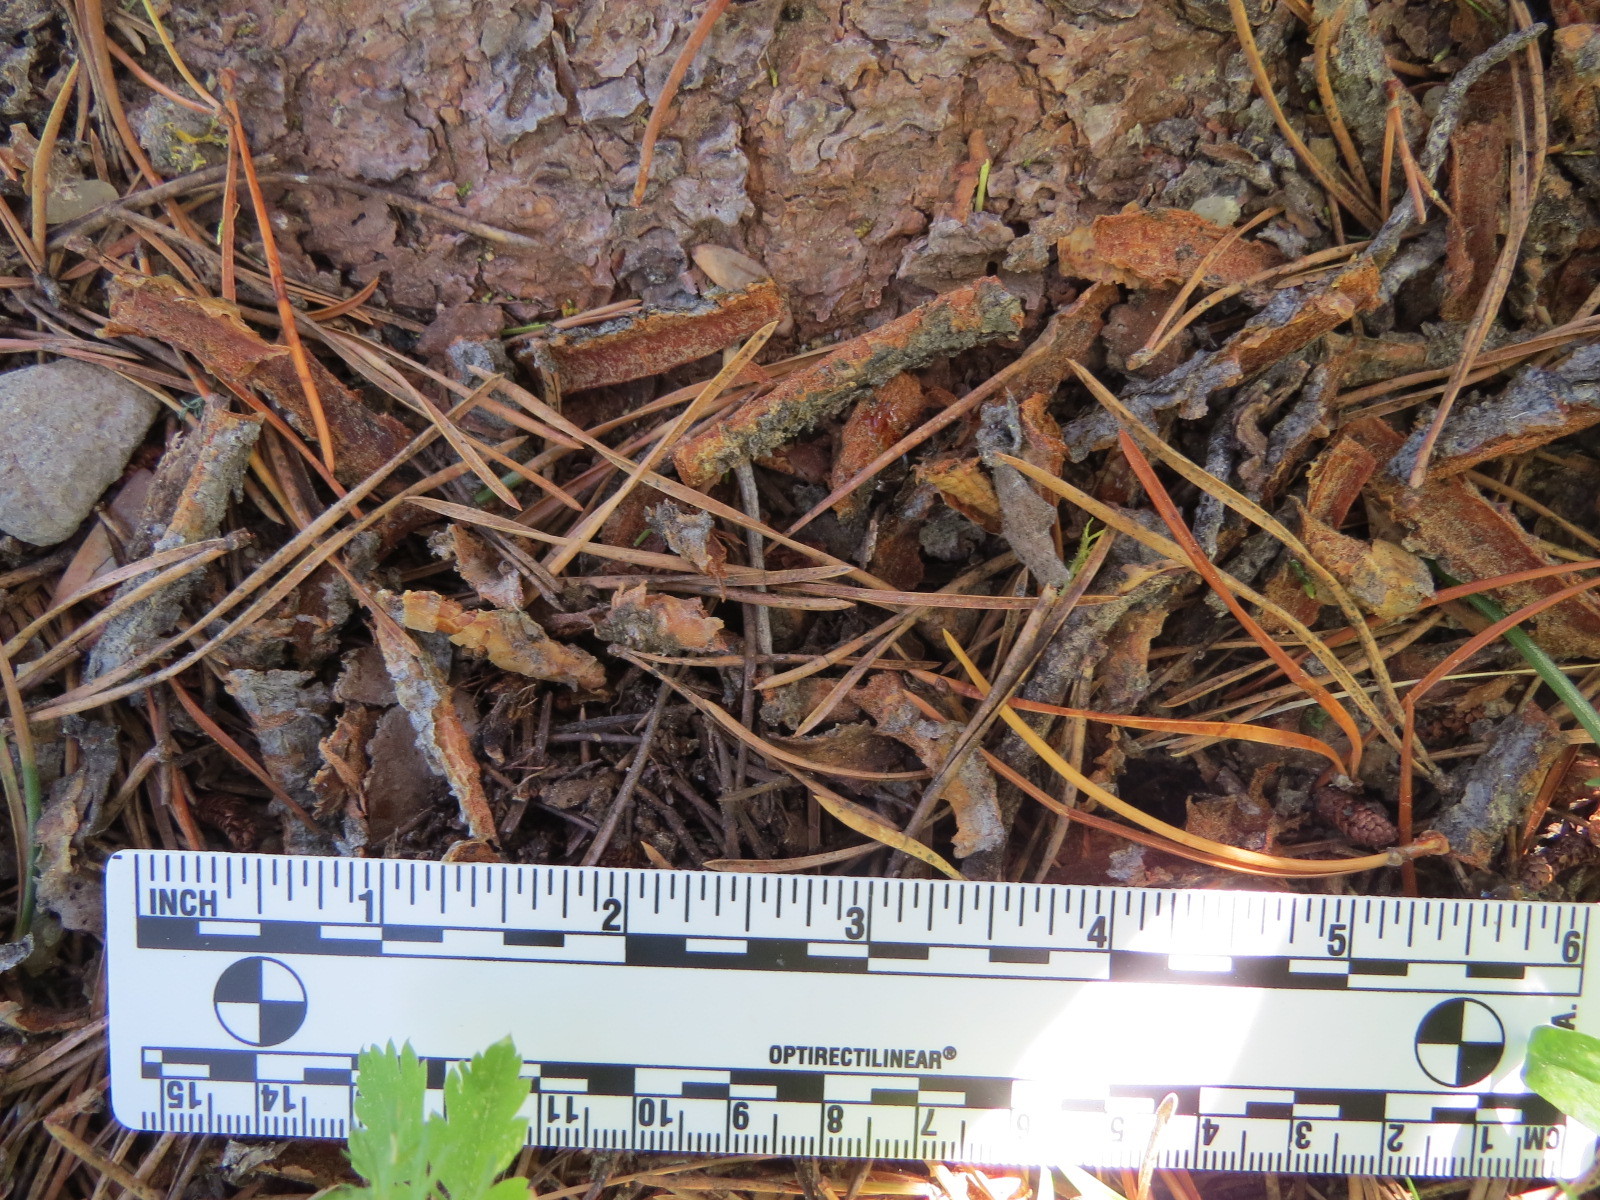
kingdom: Animalia
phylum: Chordata
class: Mammalia
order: Rodentia
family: Erethizontidae
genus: Erethizon
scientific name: Erethizon dorsatus
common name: North american porcupine
